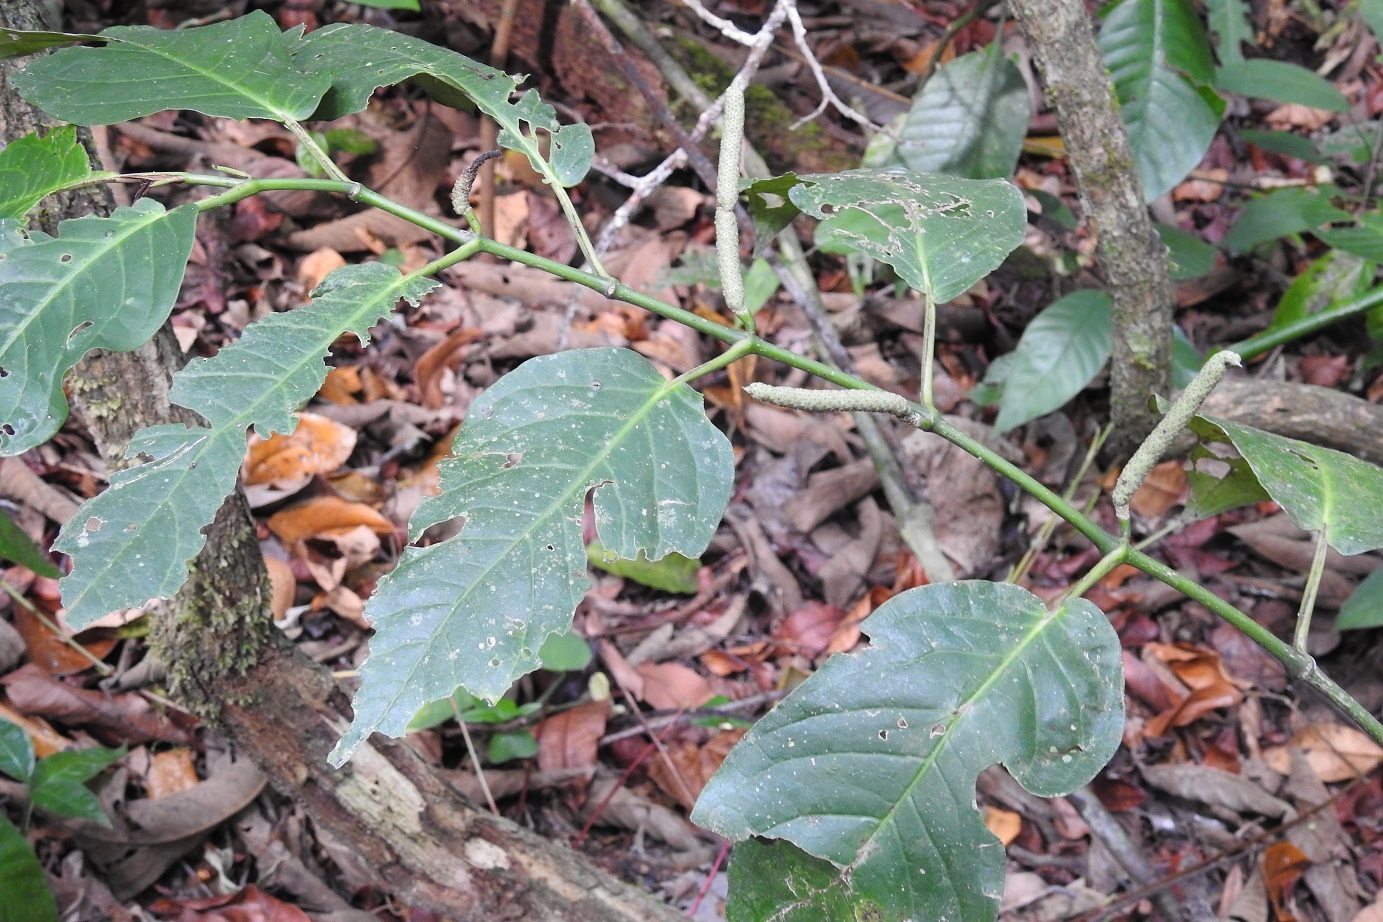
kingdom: Plantae
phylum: Tracheophyta
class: Magnoliopsida
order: Piperales
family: Piperaceae
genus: Piper
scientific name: Piper glabrescens
